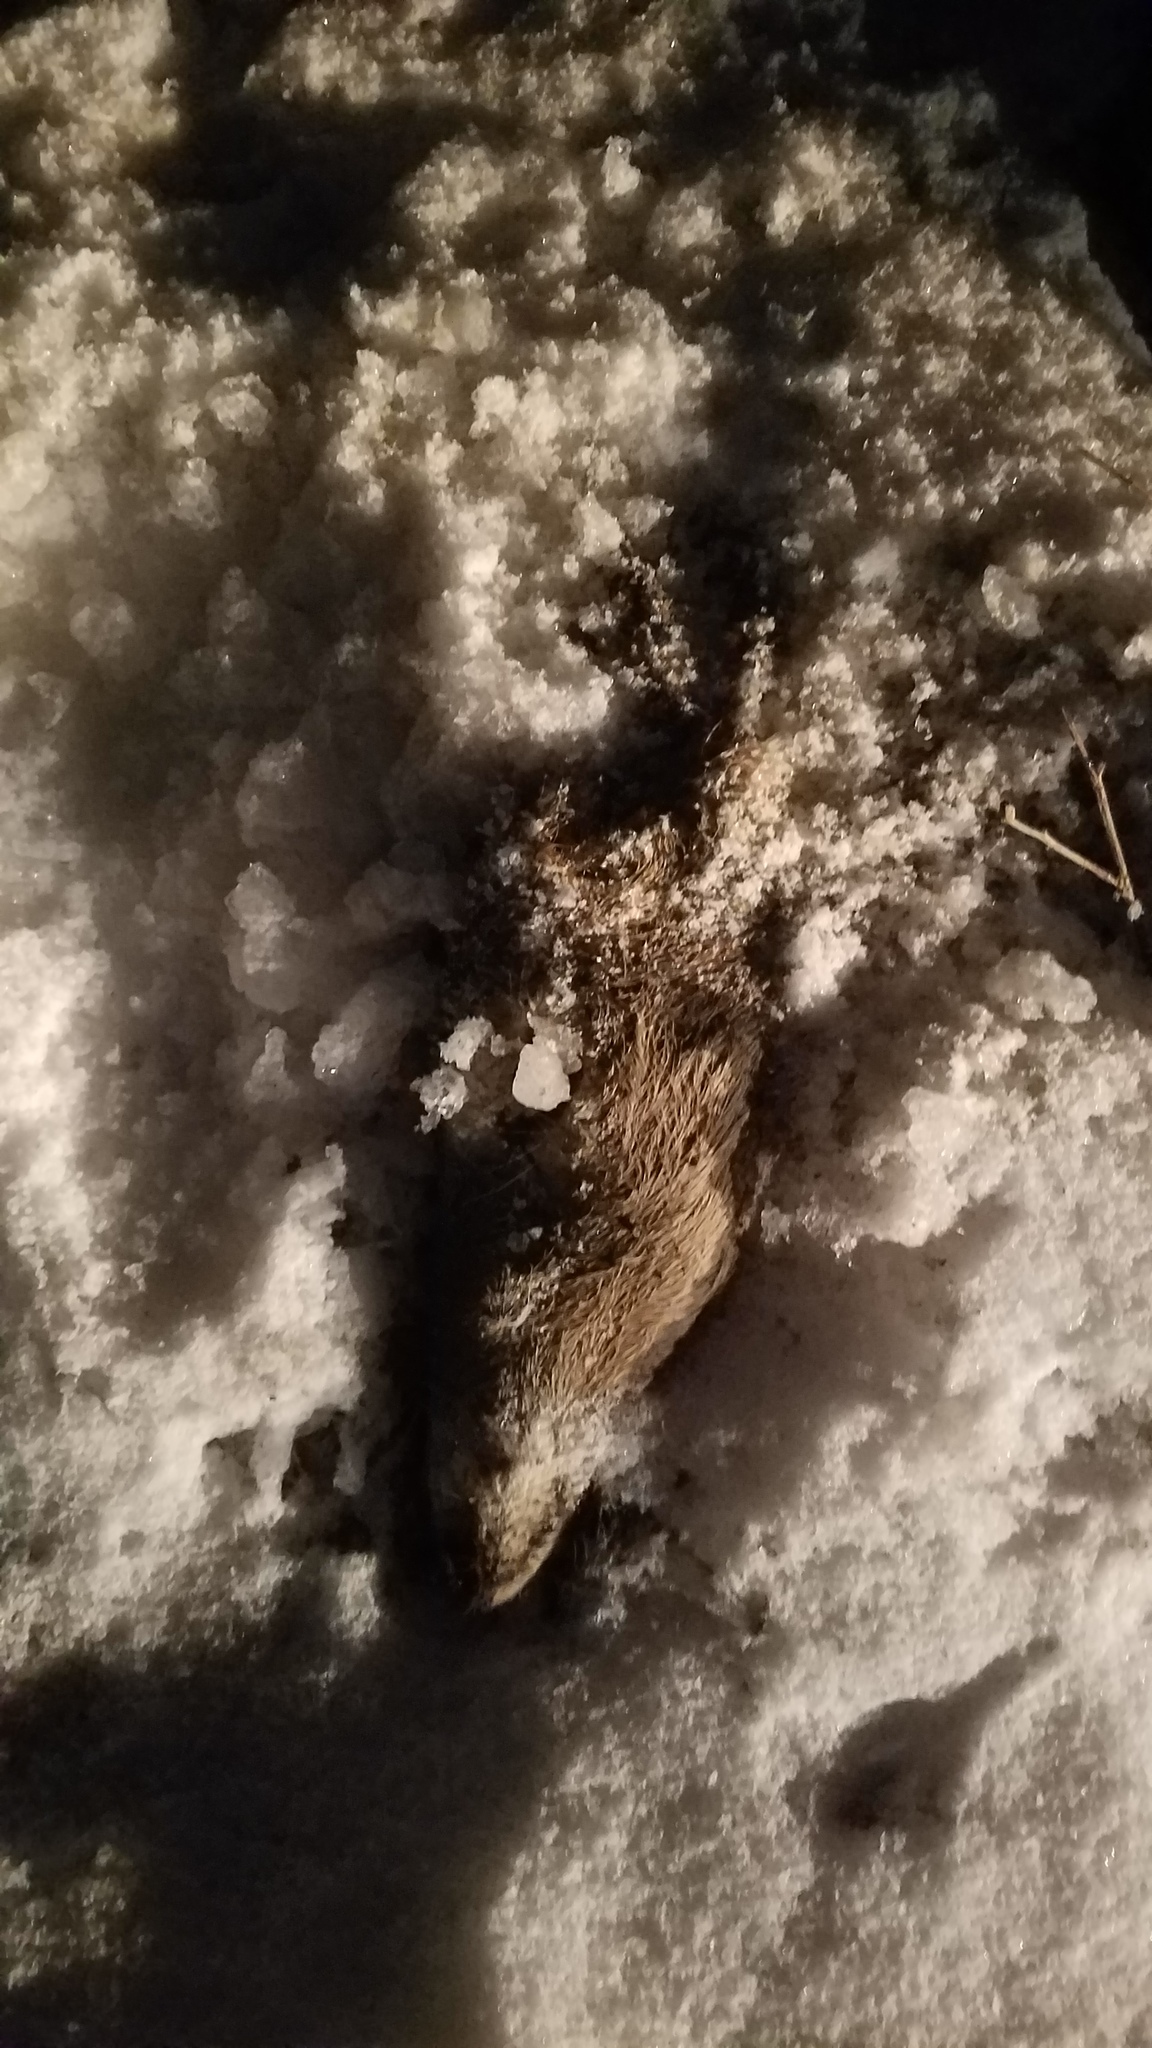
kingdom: Animalia
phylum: Chordata
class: Mammalia
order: Artiodactyla
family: Cervidae
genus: Odocoileus
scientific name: Odocoileus virginianus
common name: White-tailed deer
